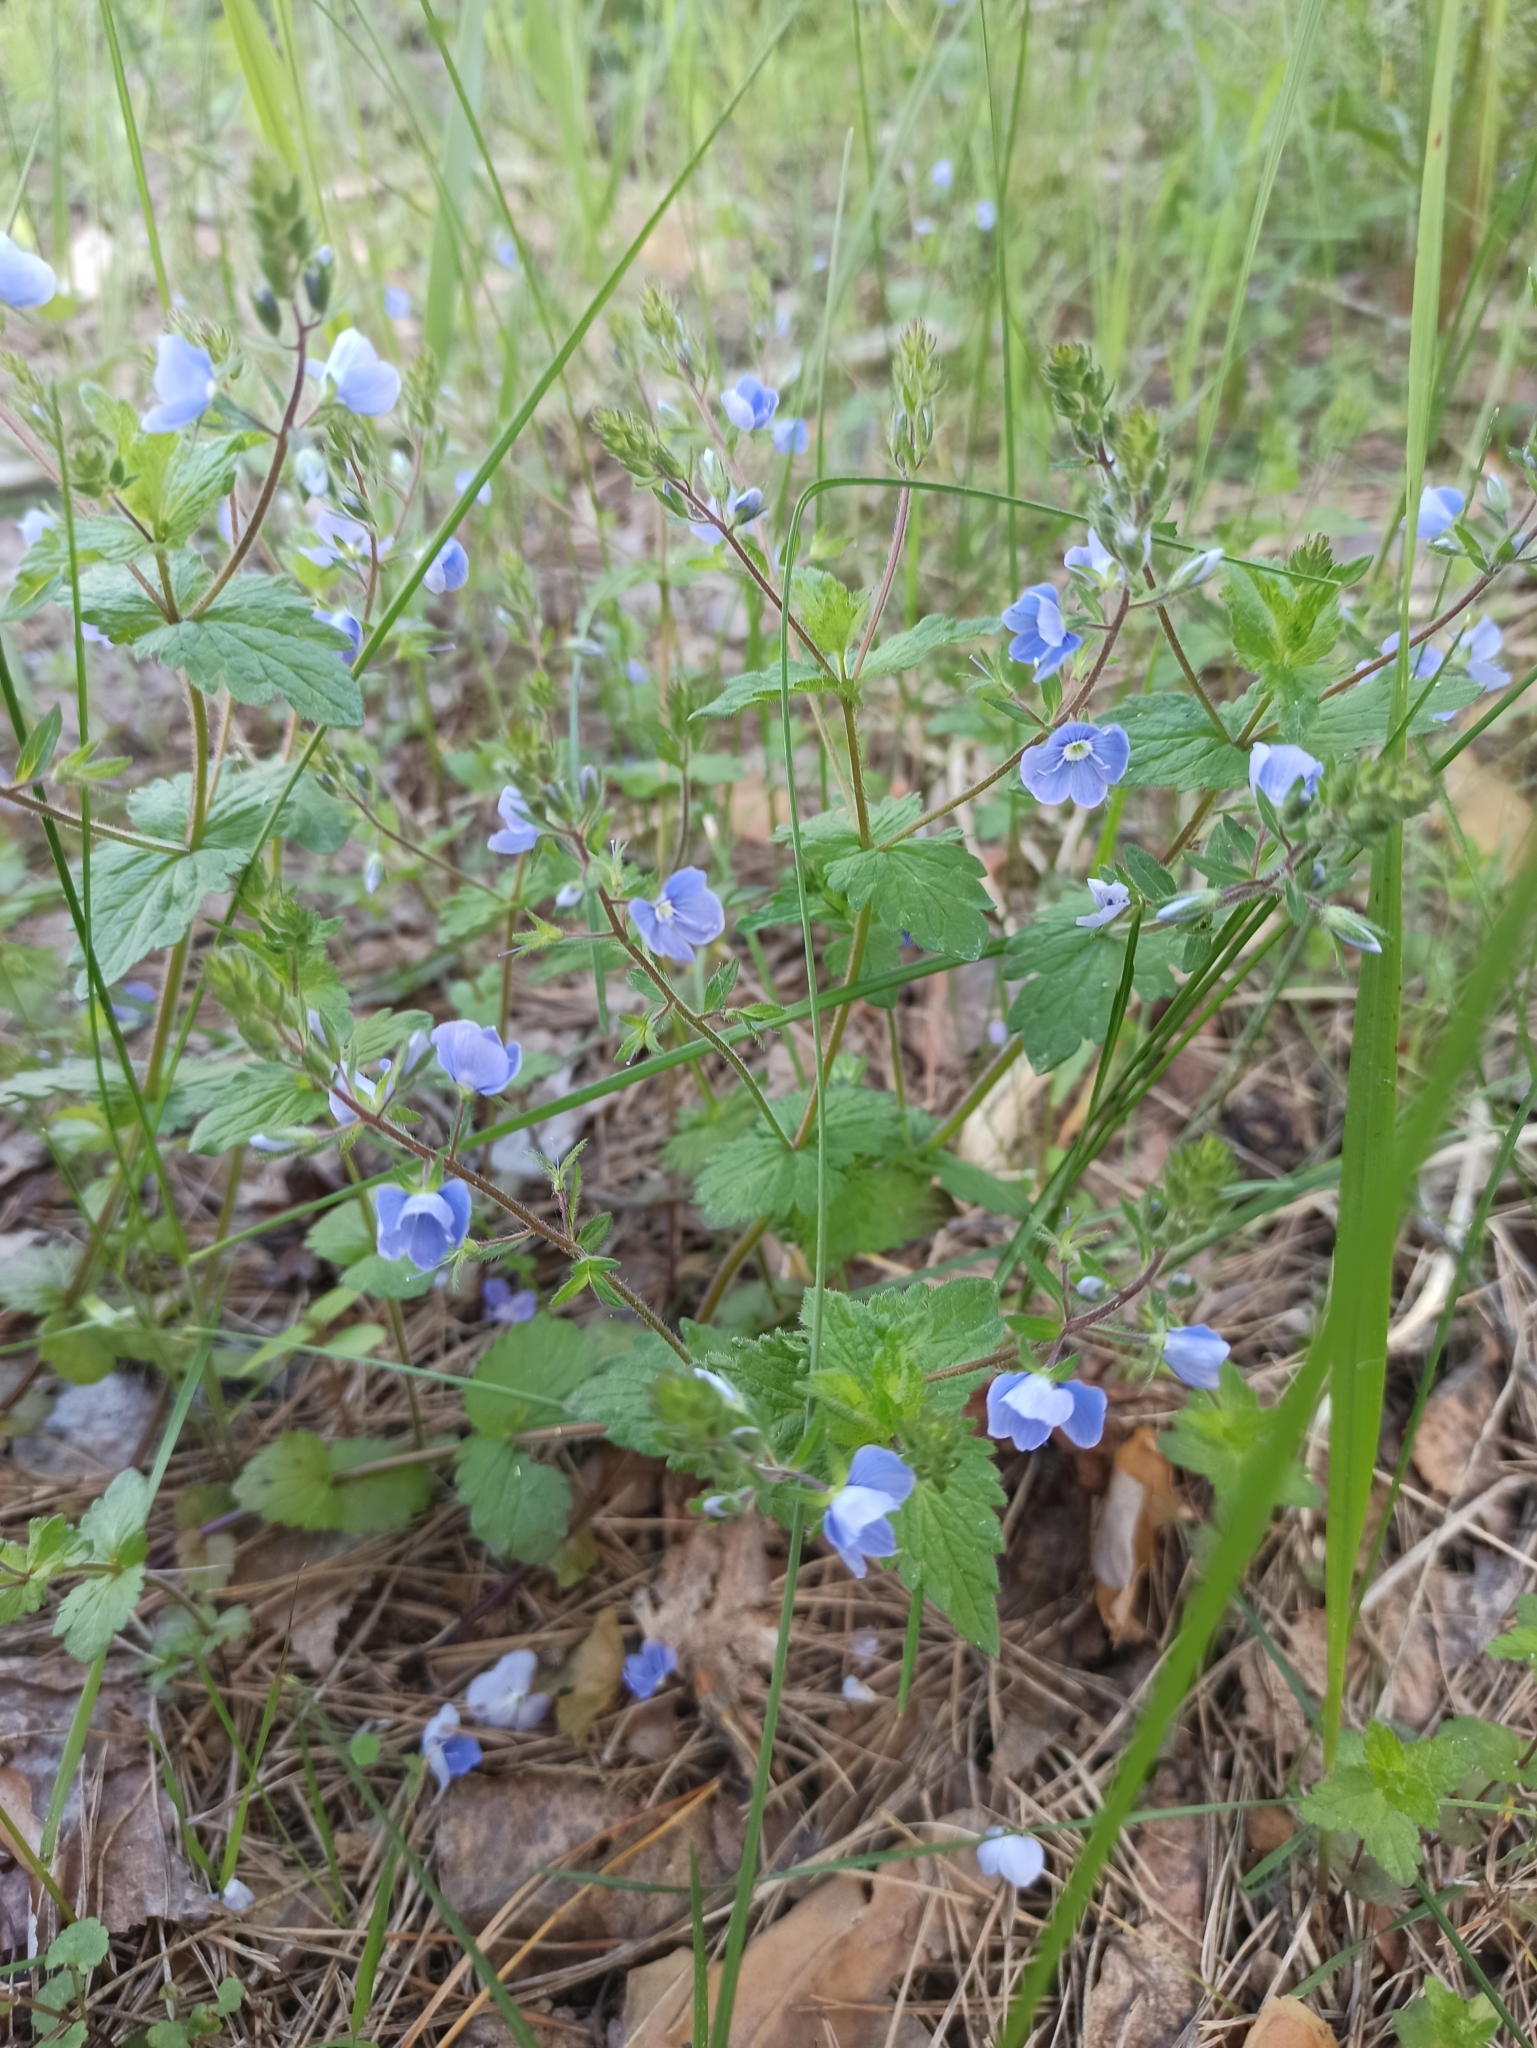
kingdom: Plantae
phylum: Tracheophyta
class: Magnoliopsida
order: Lamiales
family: Plantaginaceae
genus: Veronica
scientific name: Veronica chamaedrys
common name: Germander speedwell
